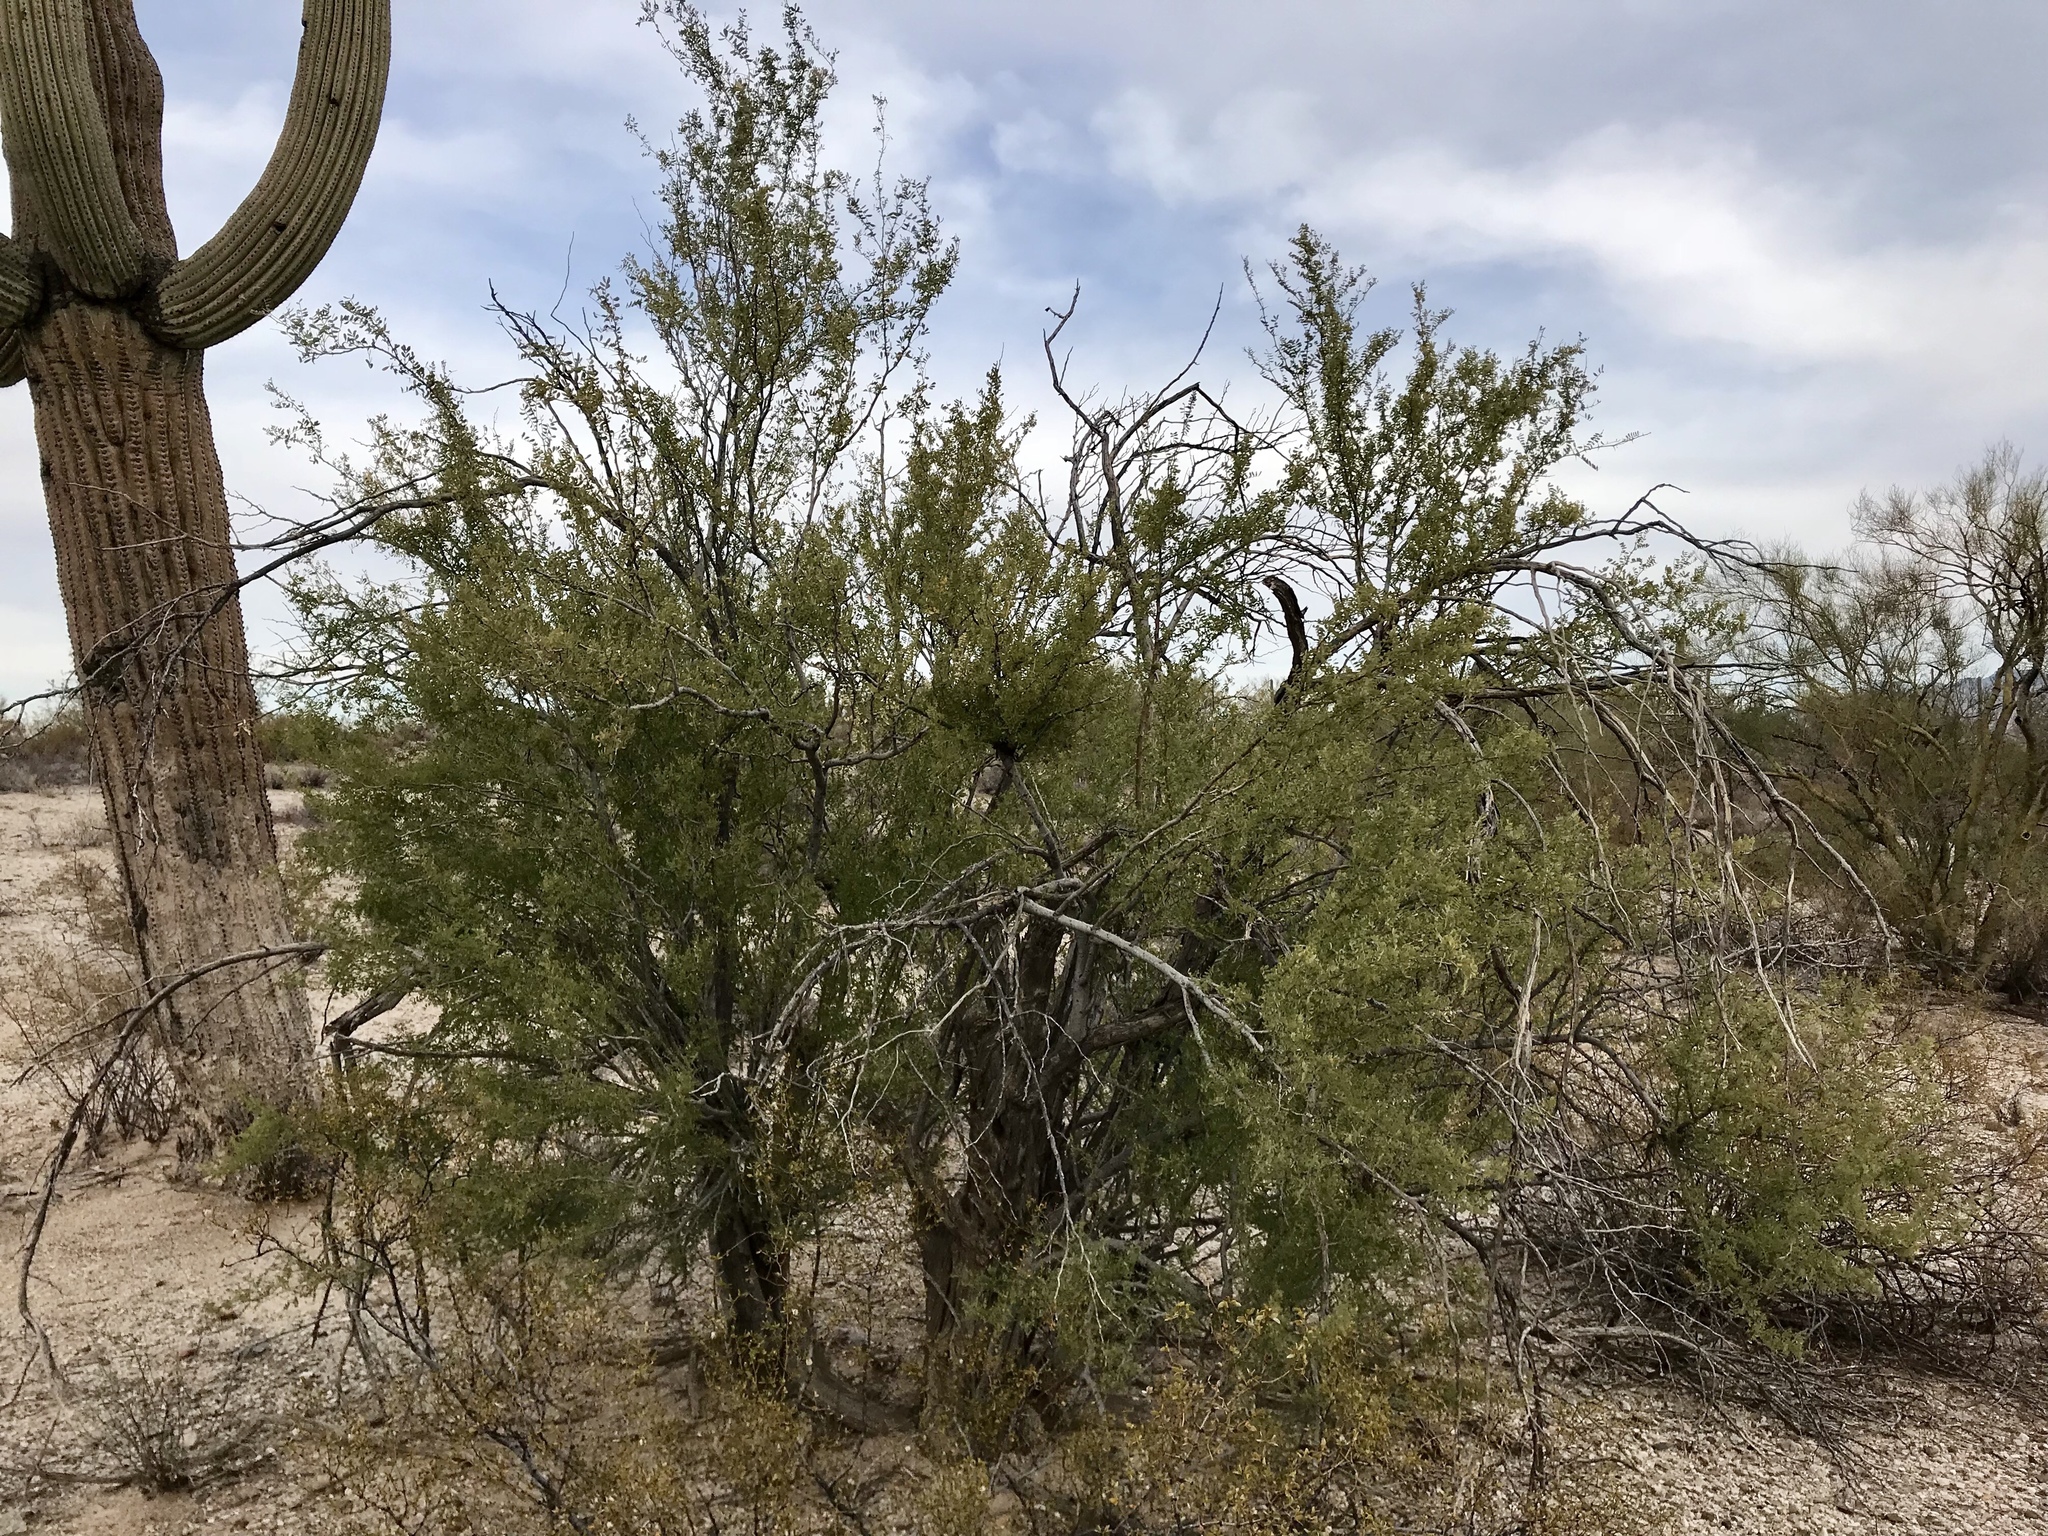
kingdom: Plantae
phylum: Tracheophyta
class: Magnoliopsida
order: Fabales
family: Fabaceae
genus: Olneya
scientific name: Olneya tesota
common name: Desert ironwood
